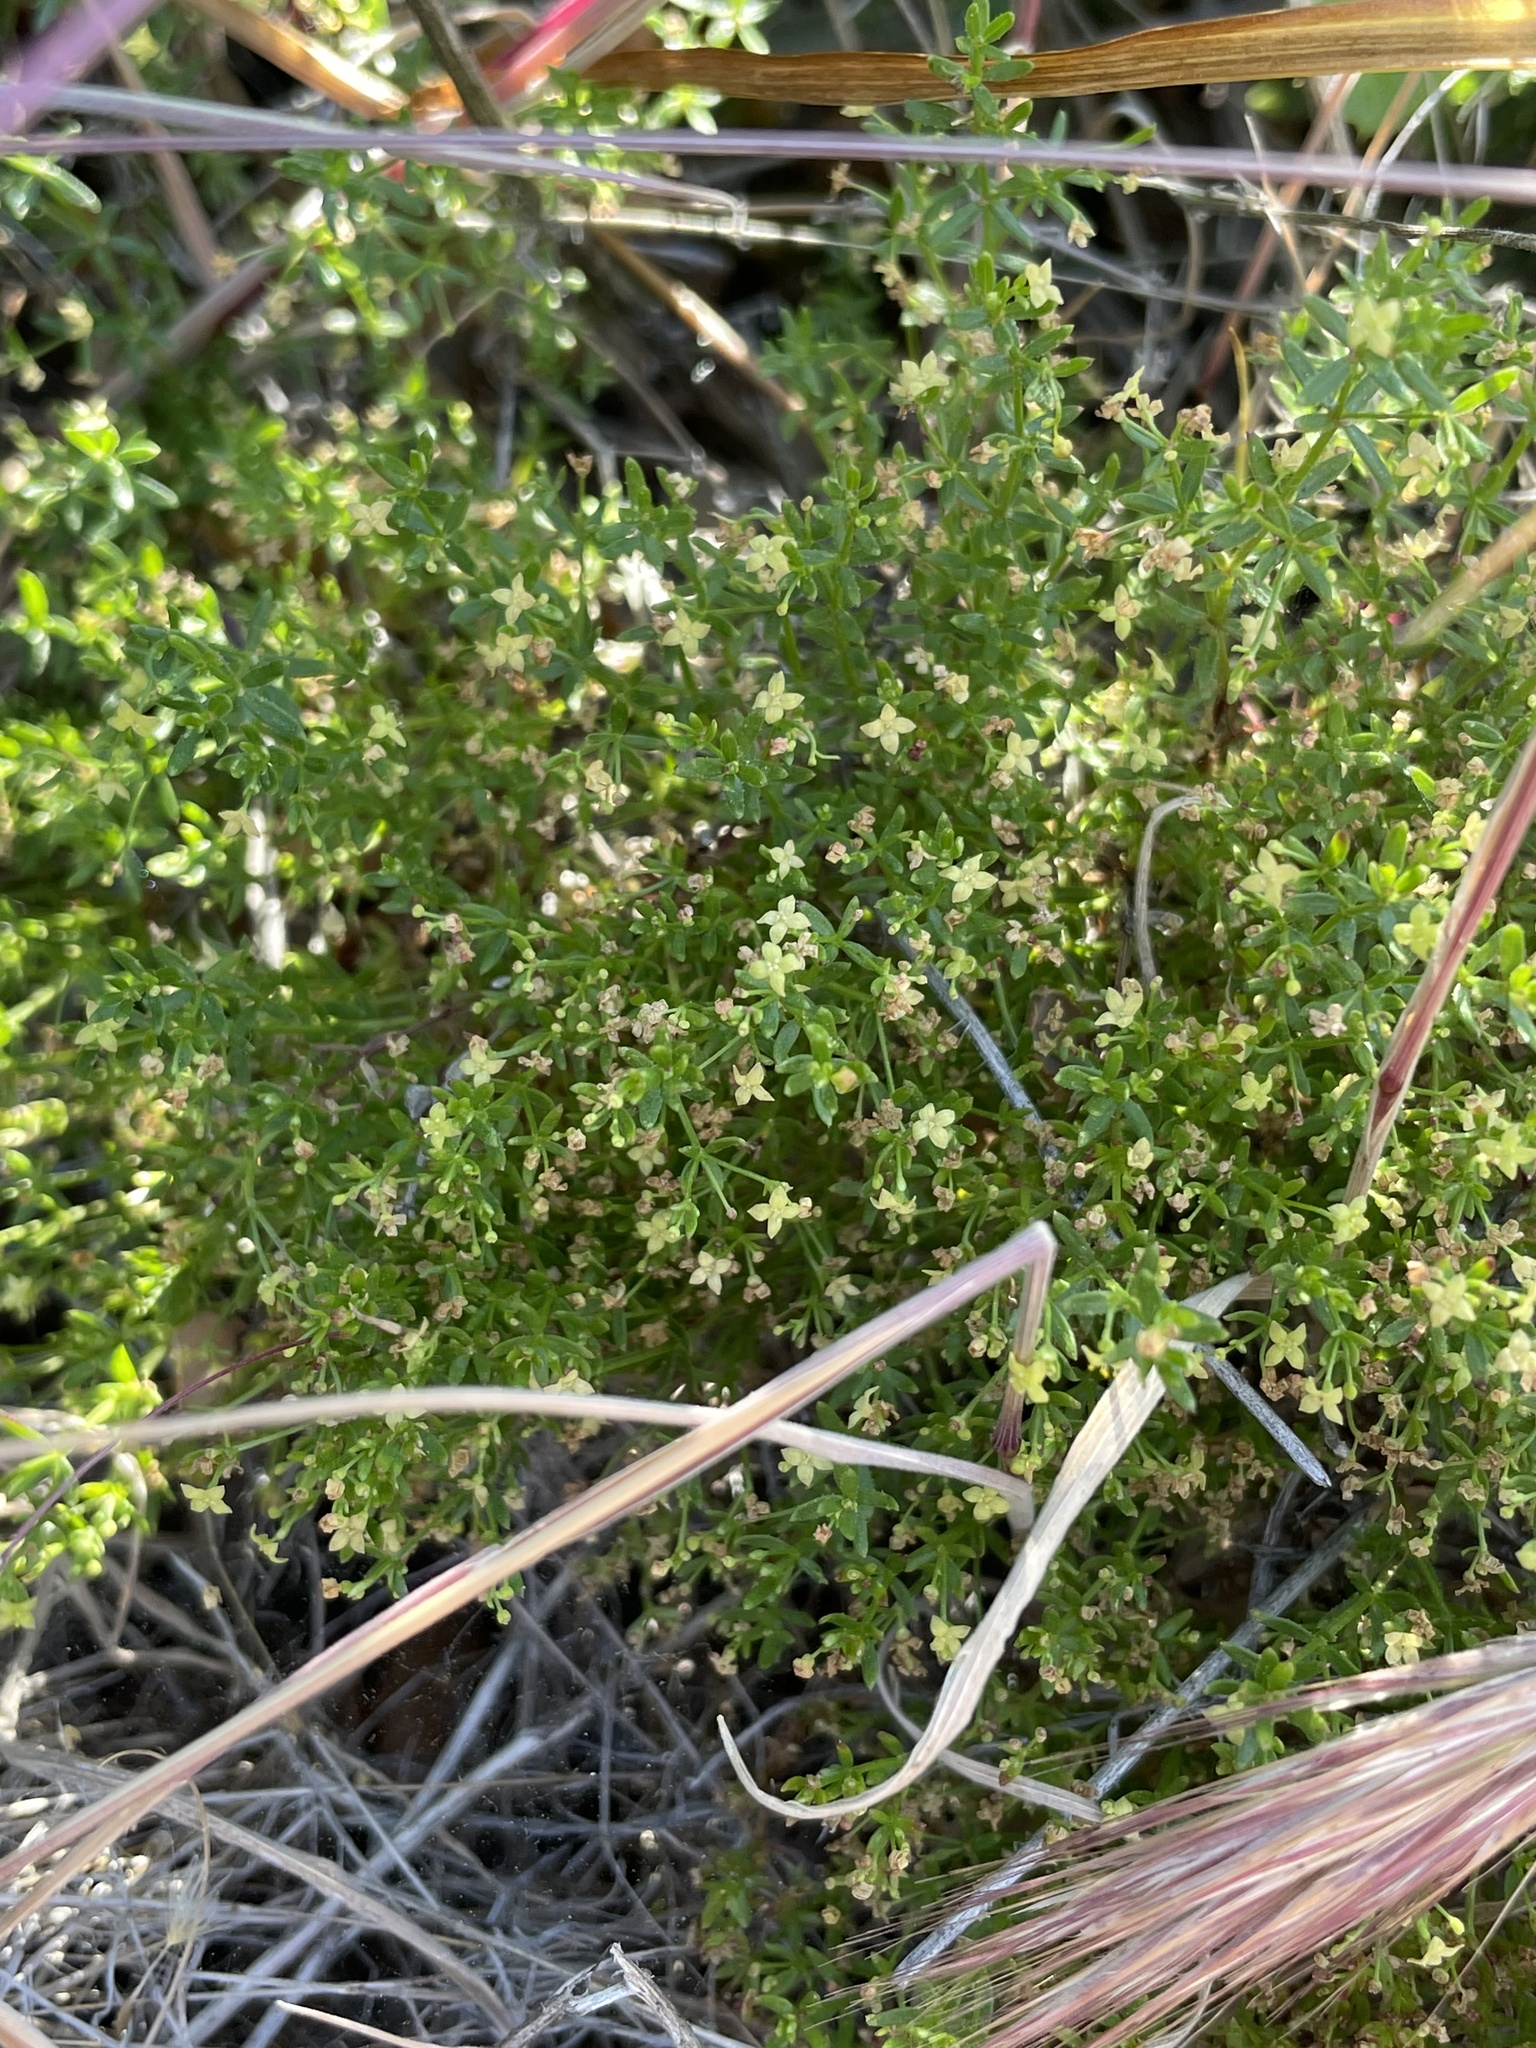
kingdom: Plantae
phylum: Tracheophyta
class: Magnoliopsida
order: Gentianales
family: Rubiaceae
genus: Galium
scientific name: Galium andrewsii
